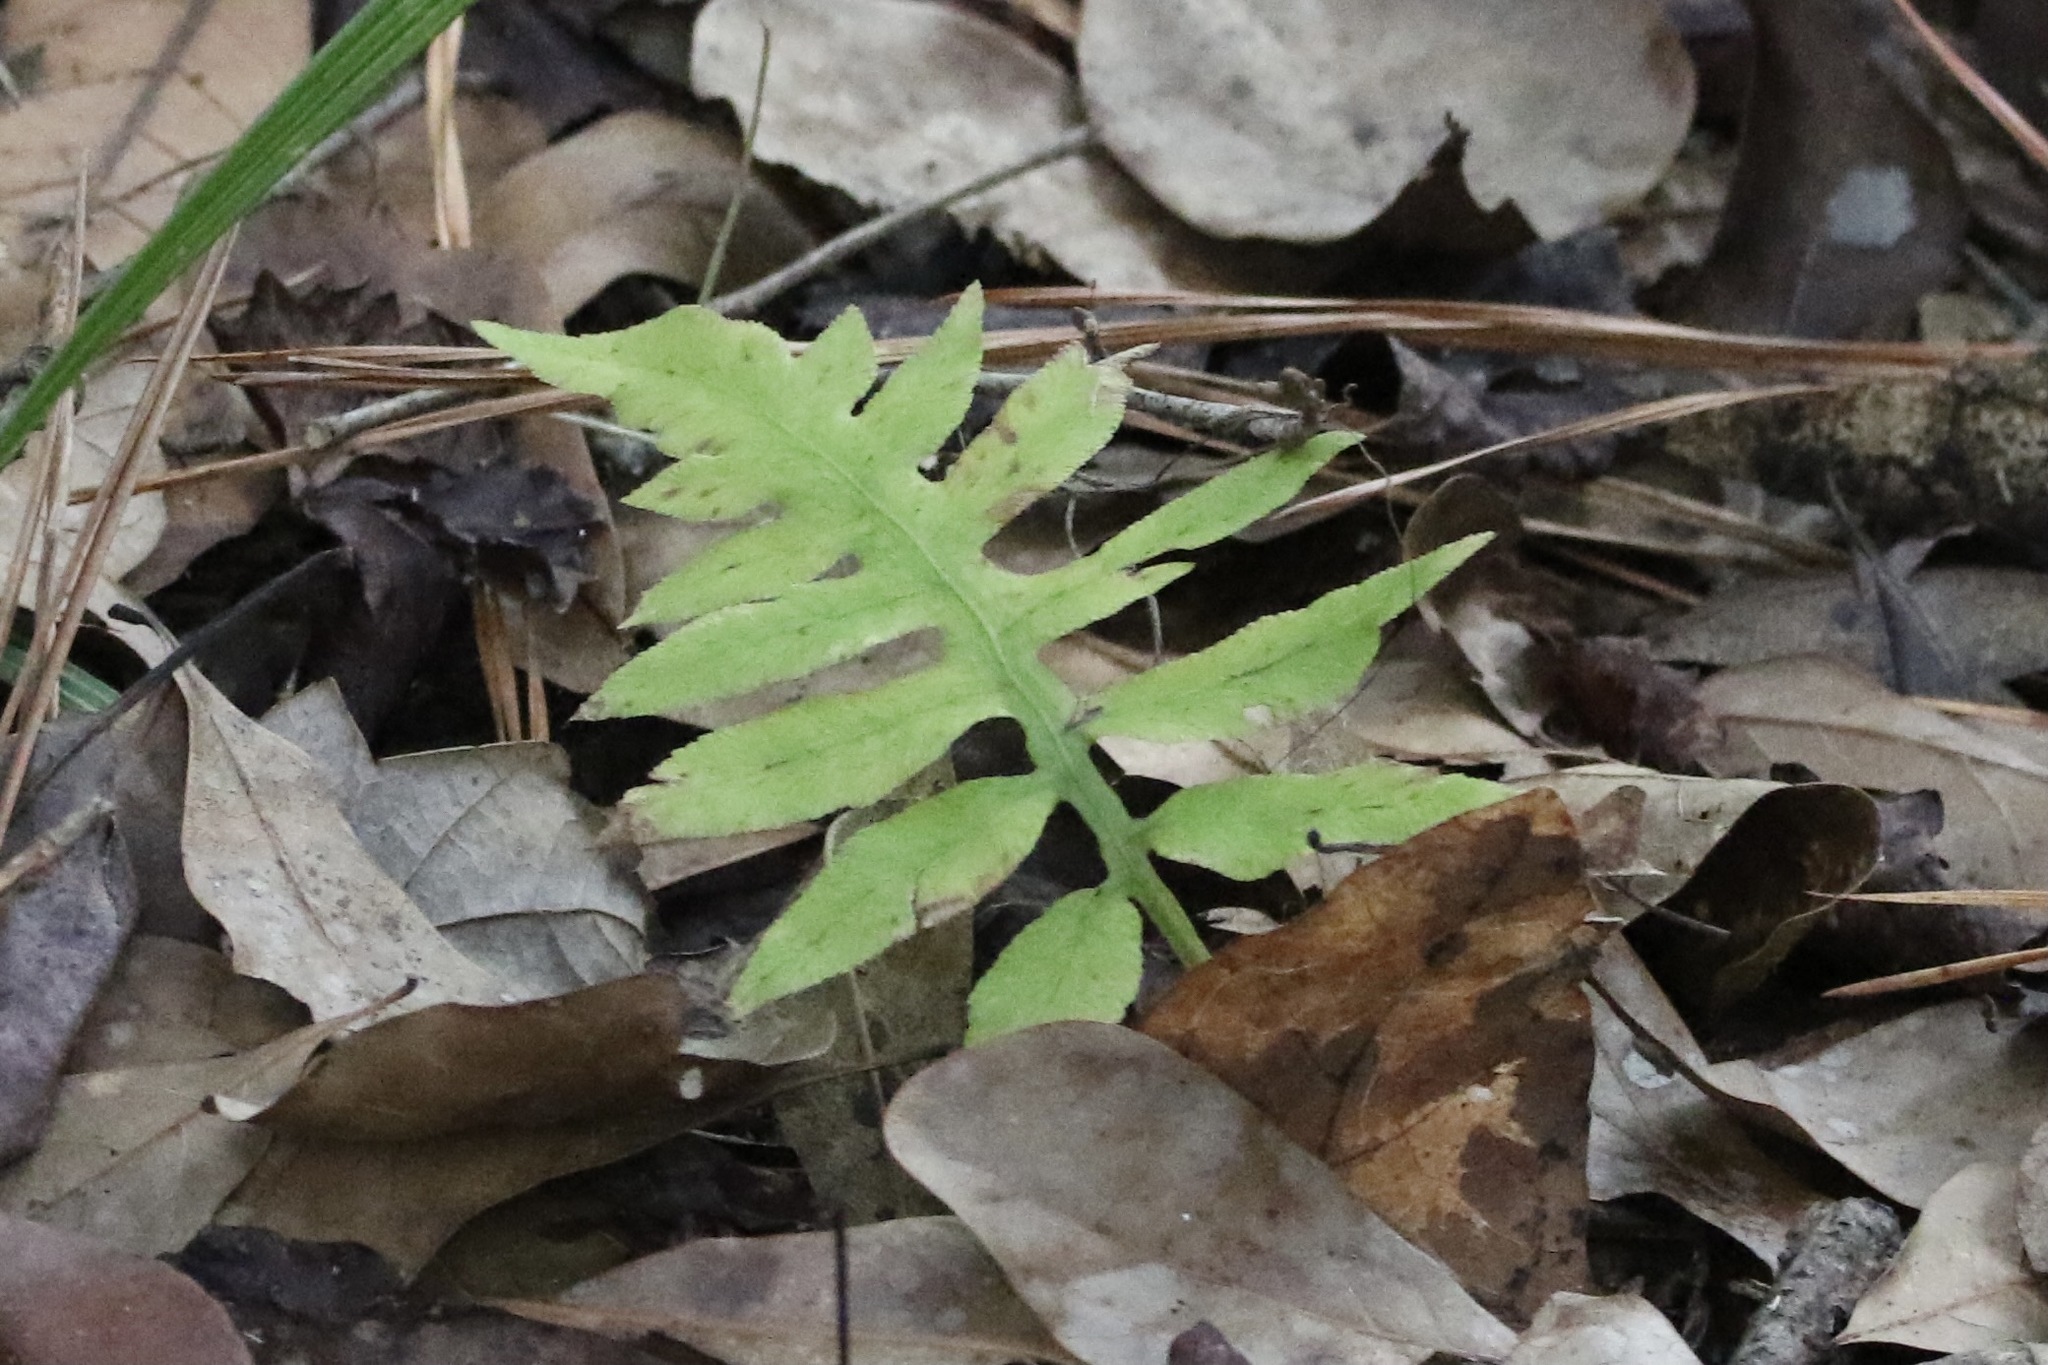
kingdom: Plantae
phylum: Tracheophyta
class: Polypodiopsida
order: Polypodiales
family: Blechnaceae
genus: Lorinseria
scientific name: Lorinseria areolata
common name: Dwarf chain fern
